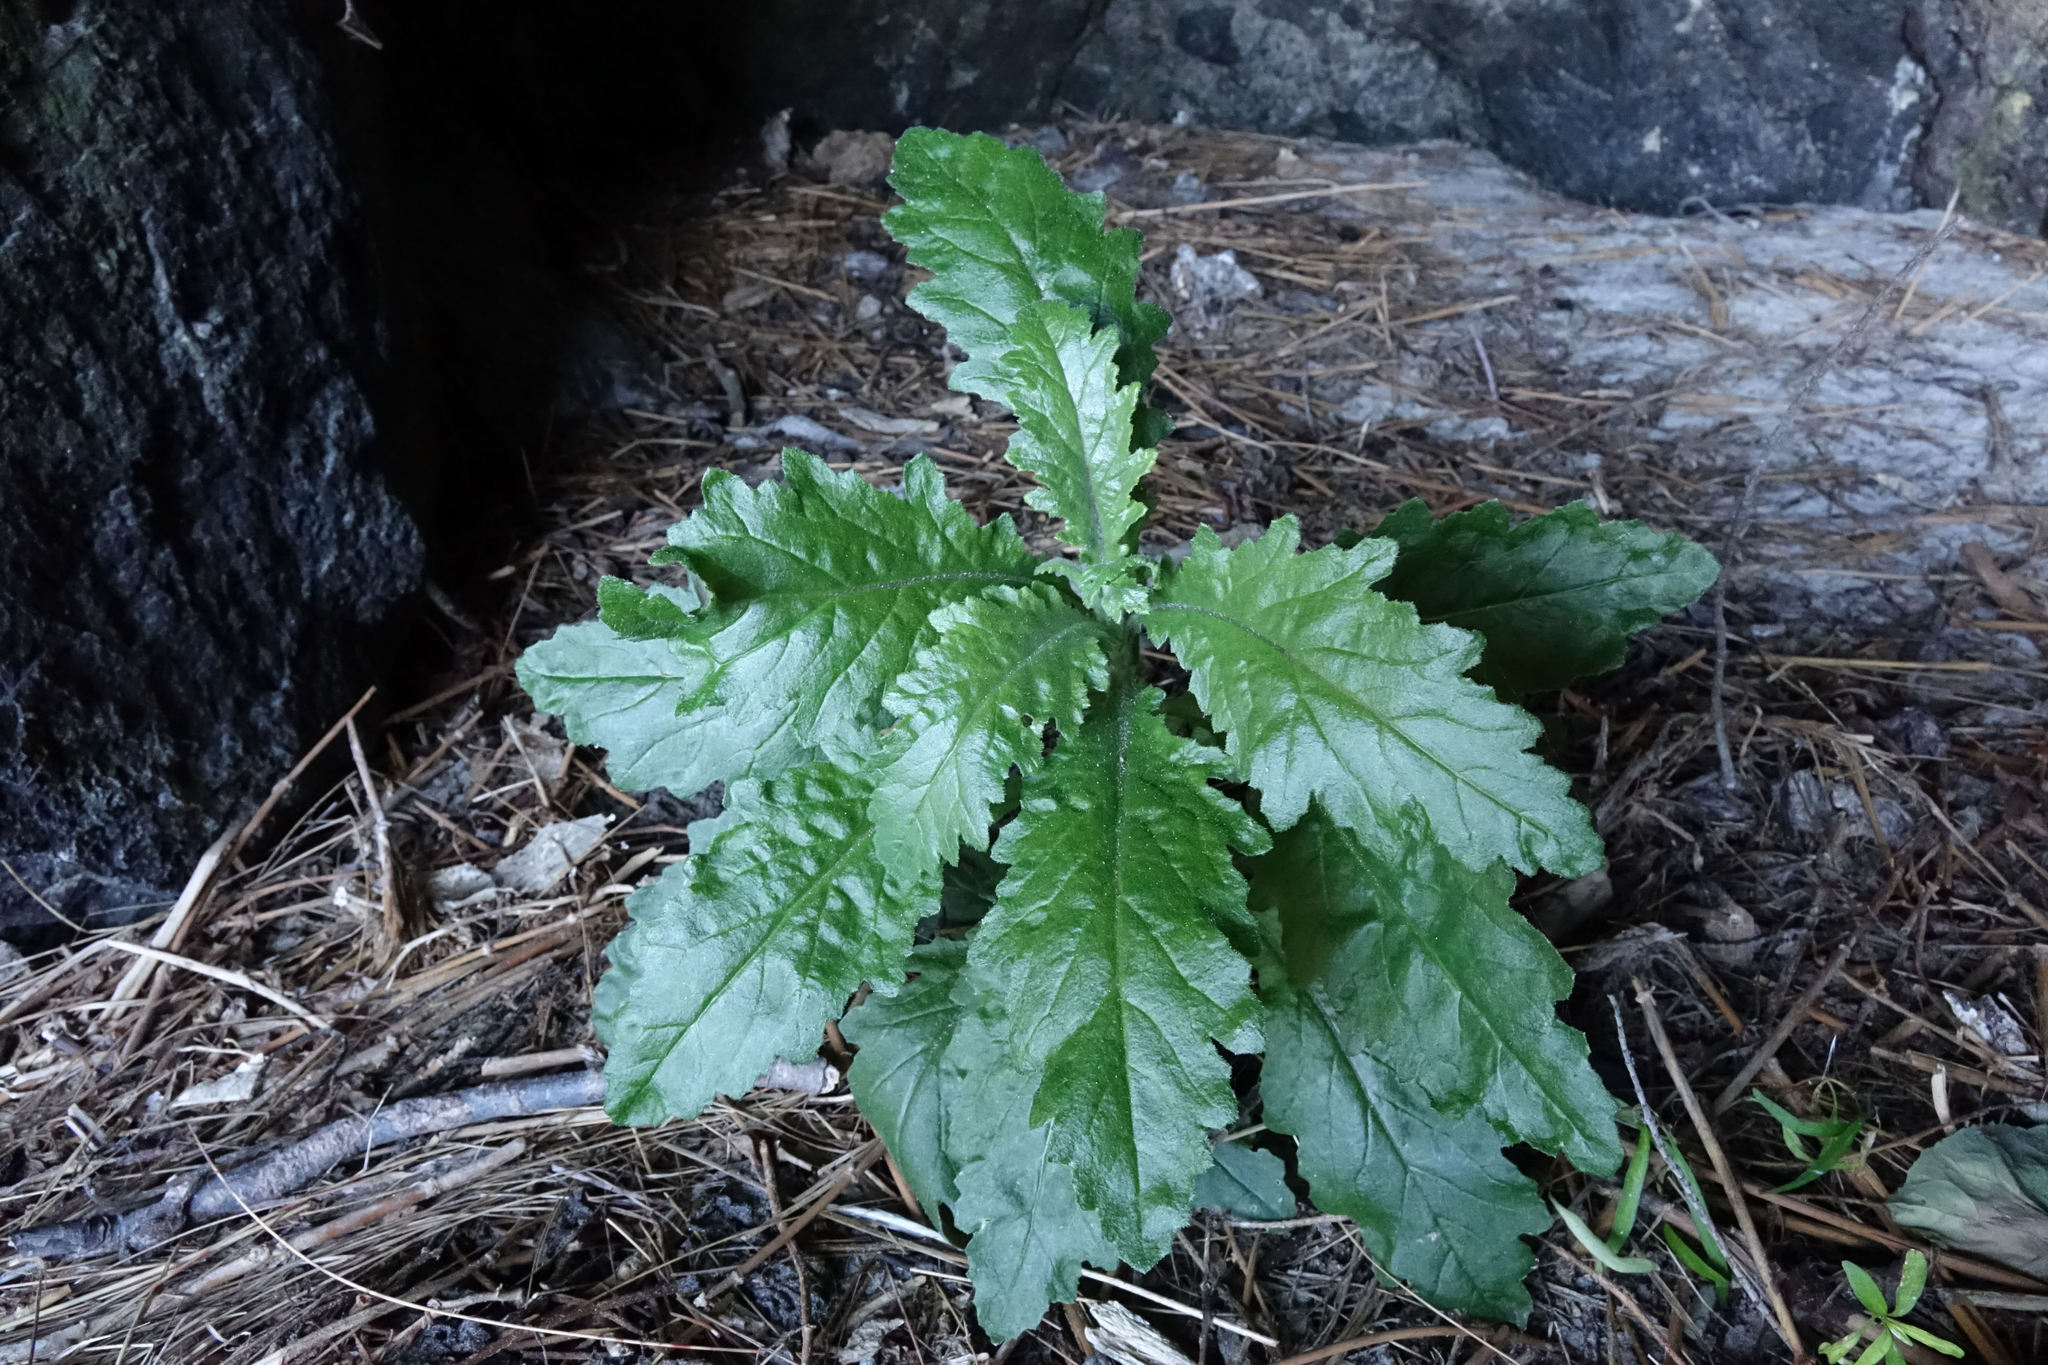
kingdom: Plantae
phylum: Tracheophyta
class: Magnoliopsida
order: Asterales
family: Asteraceae
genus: Senecio
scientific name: Senecio biserratus
